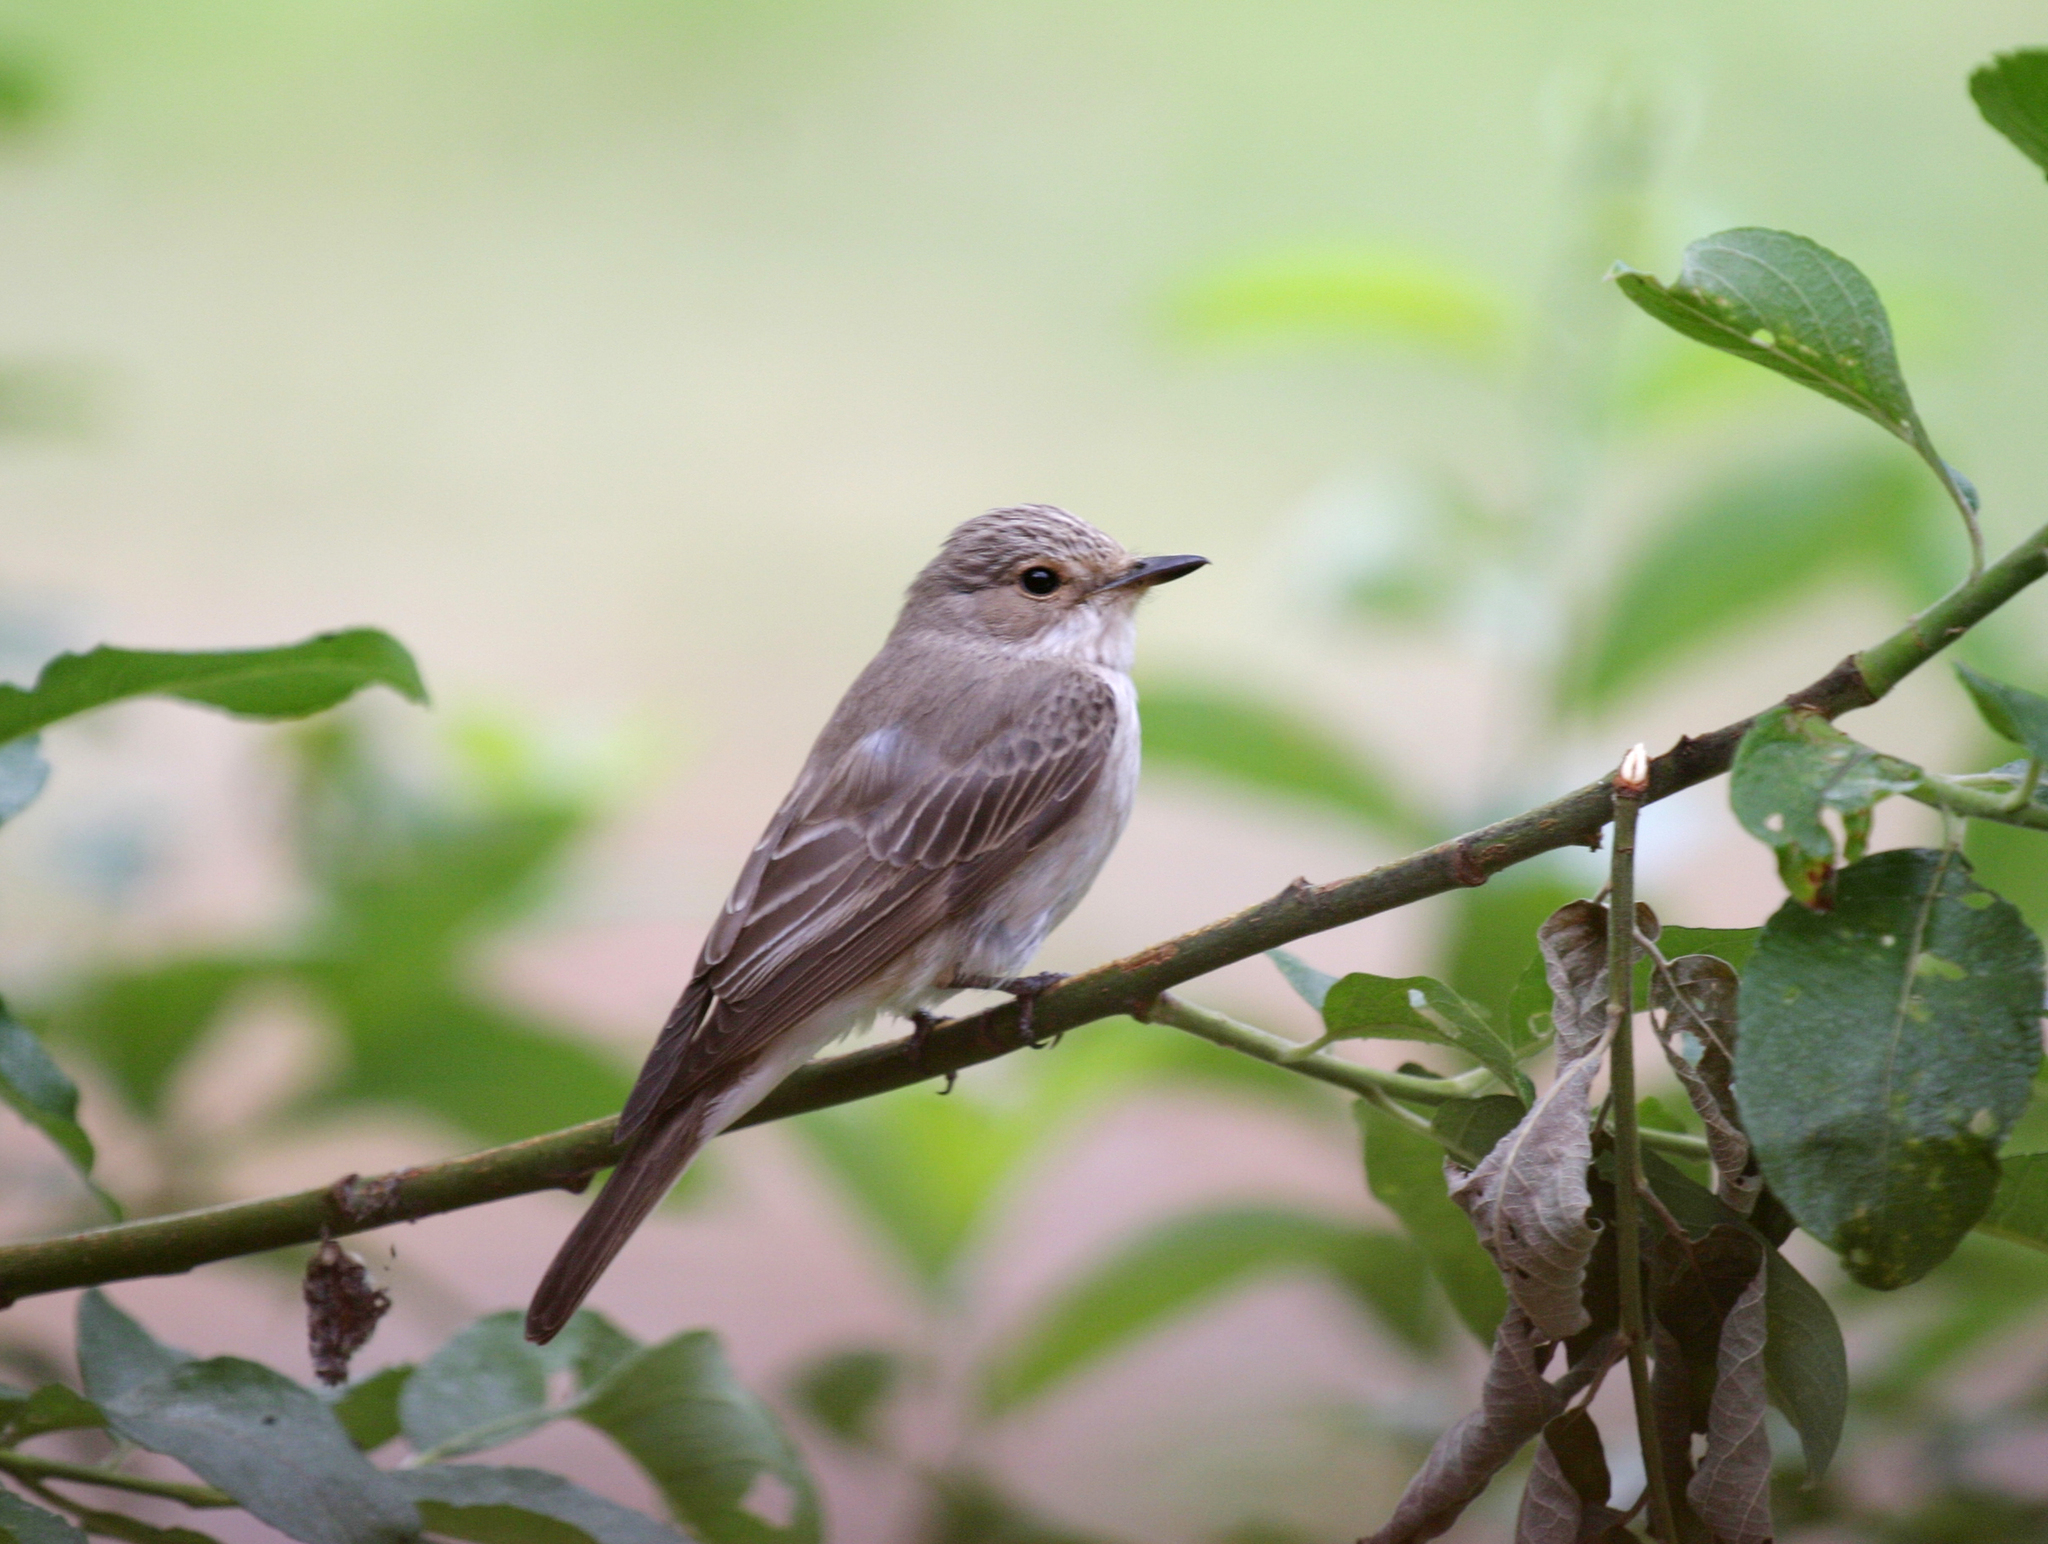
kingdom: Plantae
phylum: Tracheophyta
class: Magnoliopsida
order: Malpighiales
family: Salicaceae
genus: Salix
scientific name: Salix caprea
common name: Goat willow
